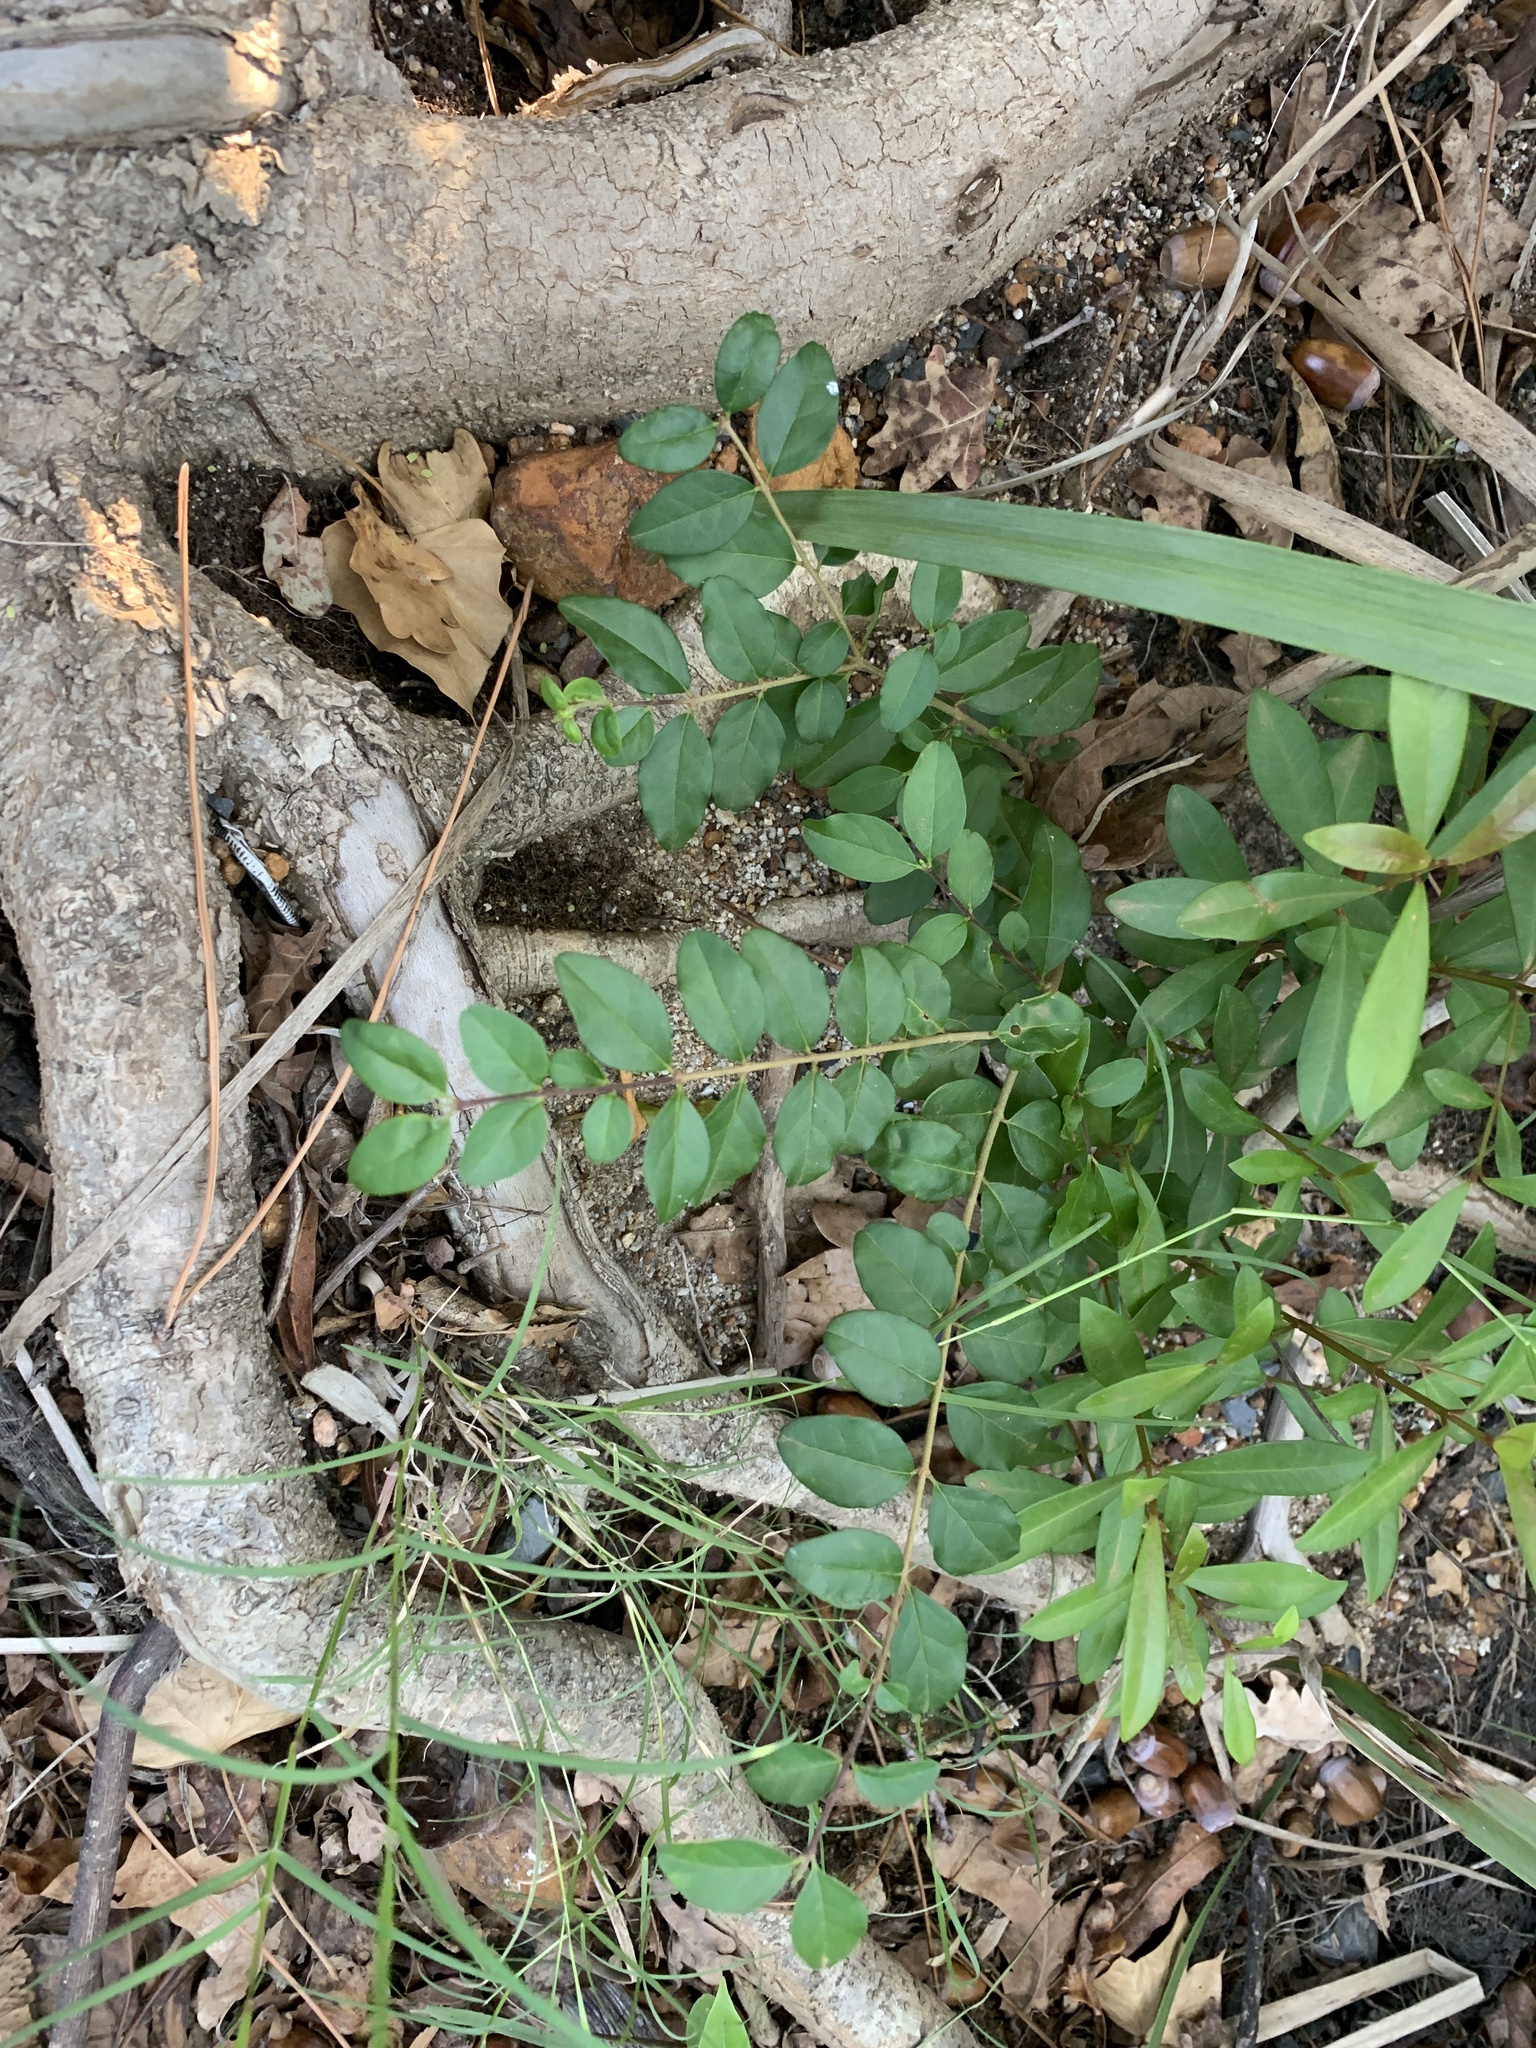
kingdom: Plantae
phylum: Tracheophyta
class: Magnoliopsida
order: Lamiales
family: Oleaceae
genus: Ligustrum
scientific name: Ligustrum sinense
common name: Chinese privet
